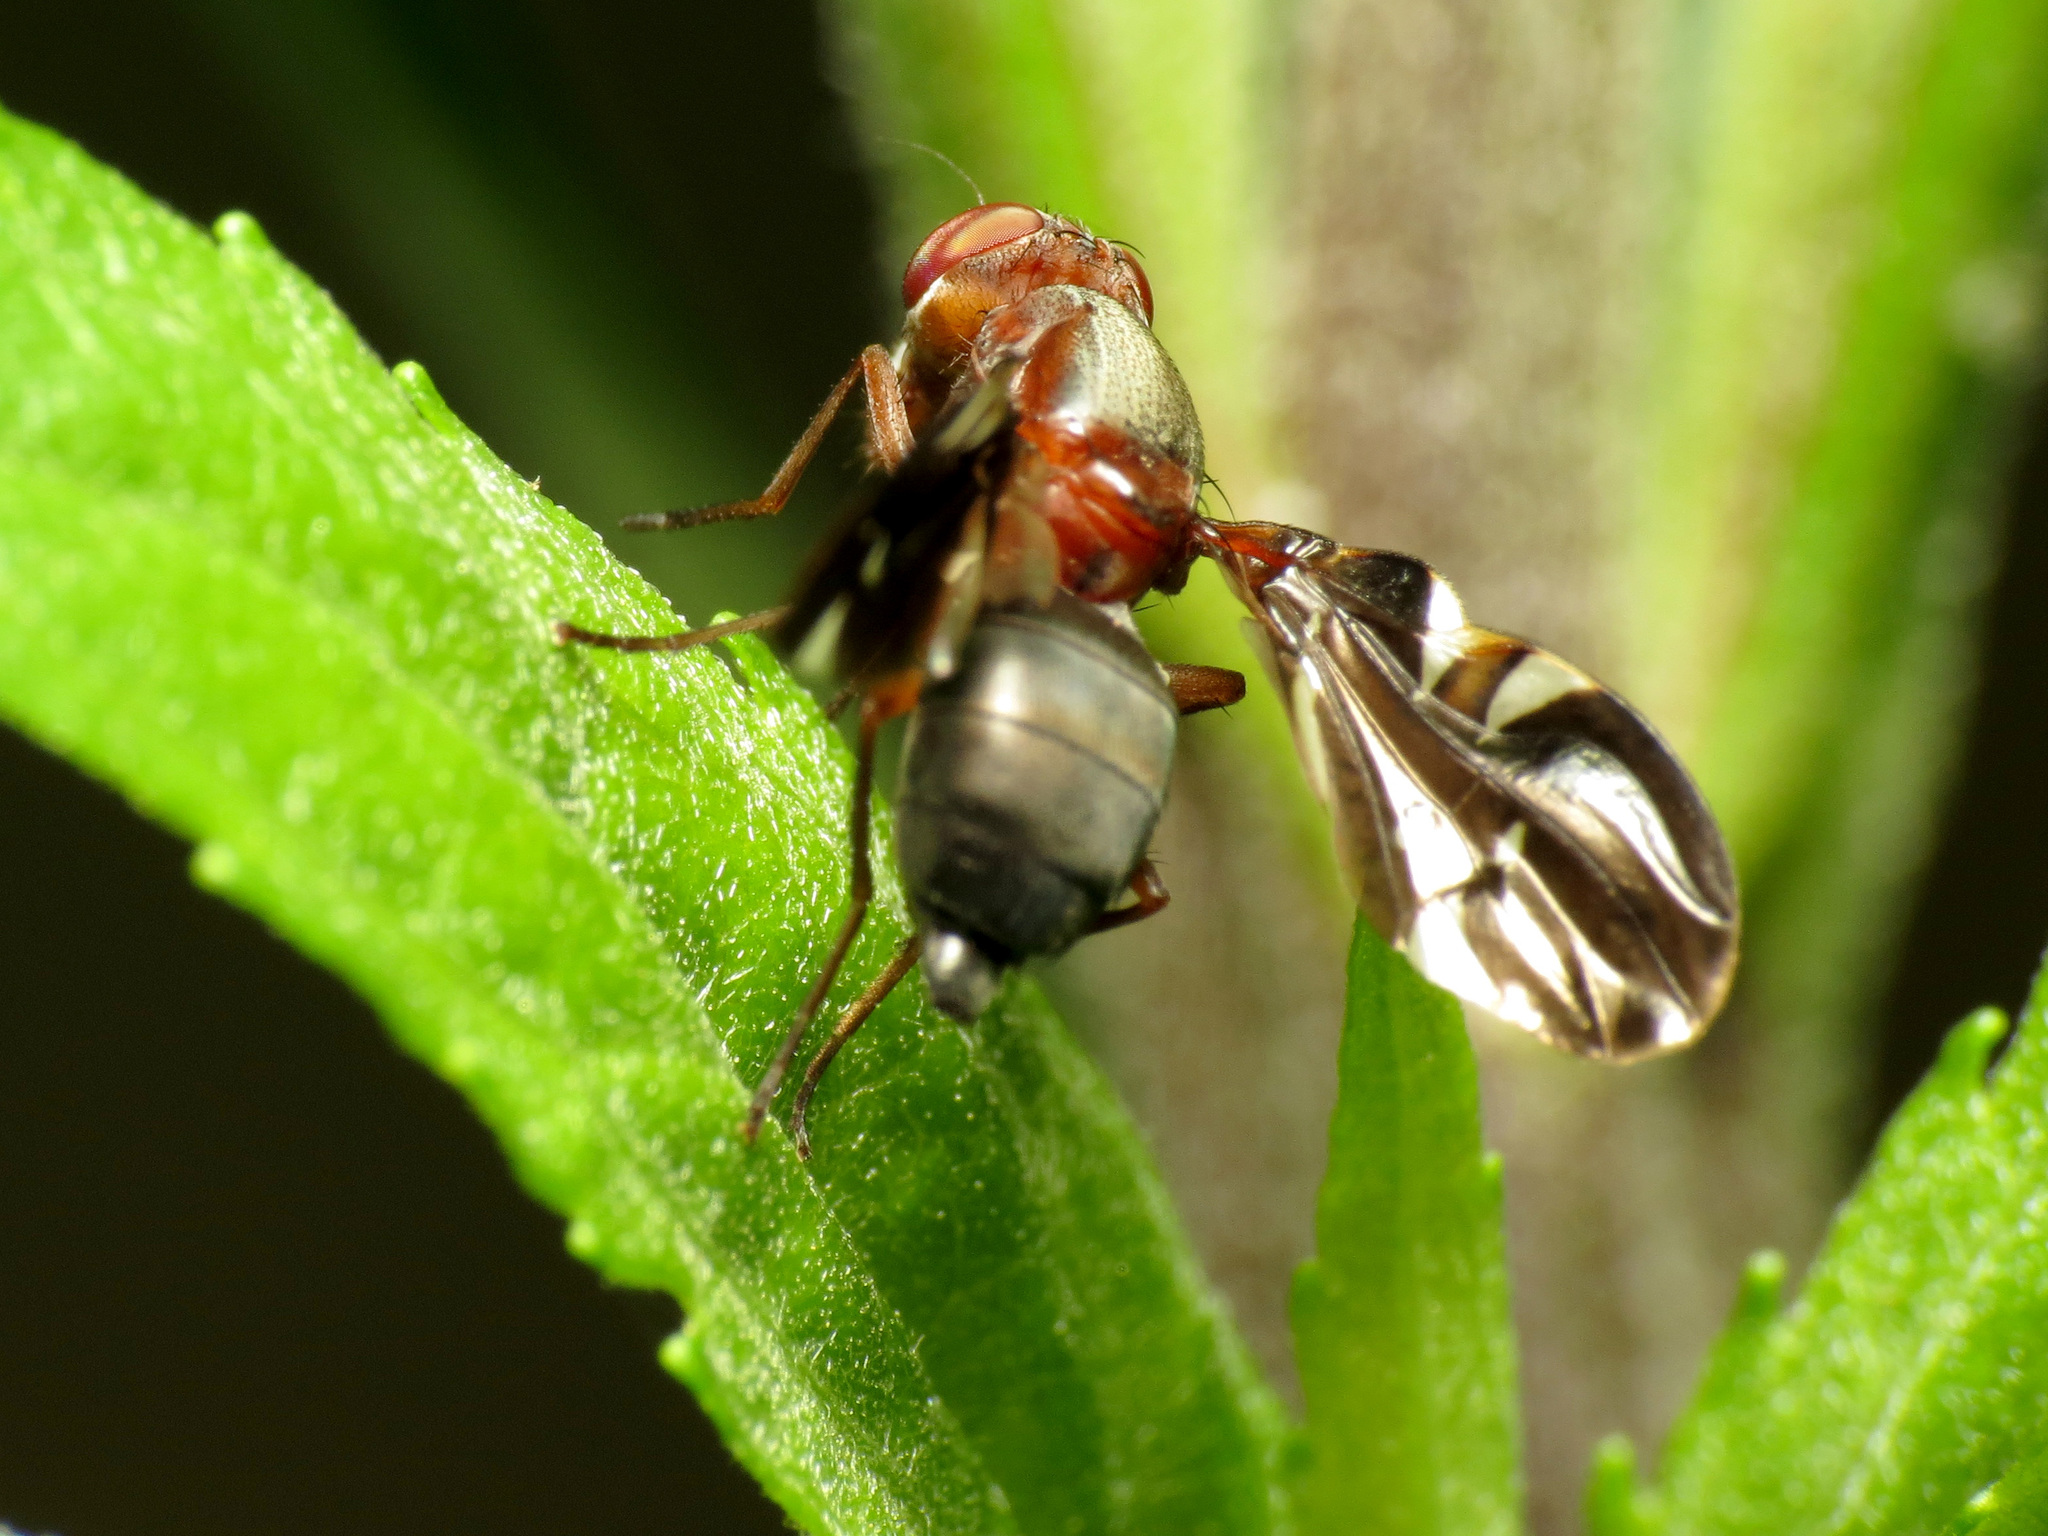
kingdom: Animalia
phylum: Arthropoda
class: Insecta
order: Diptera
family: Ulidiidae
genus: Delphinia
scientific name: Delphinia picta
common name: Common picture-winged fly
